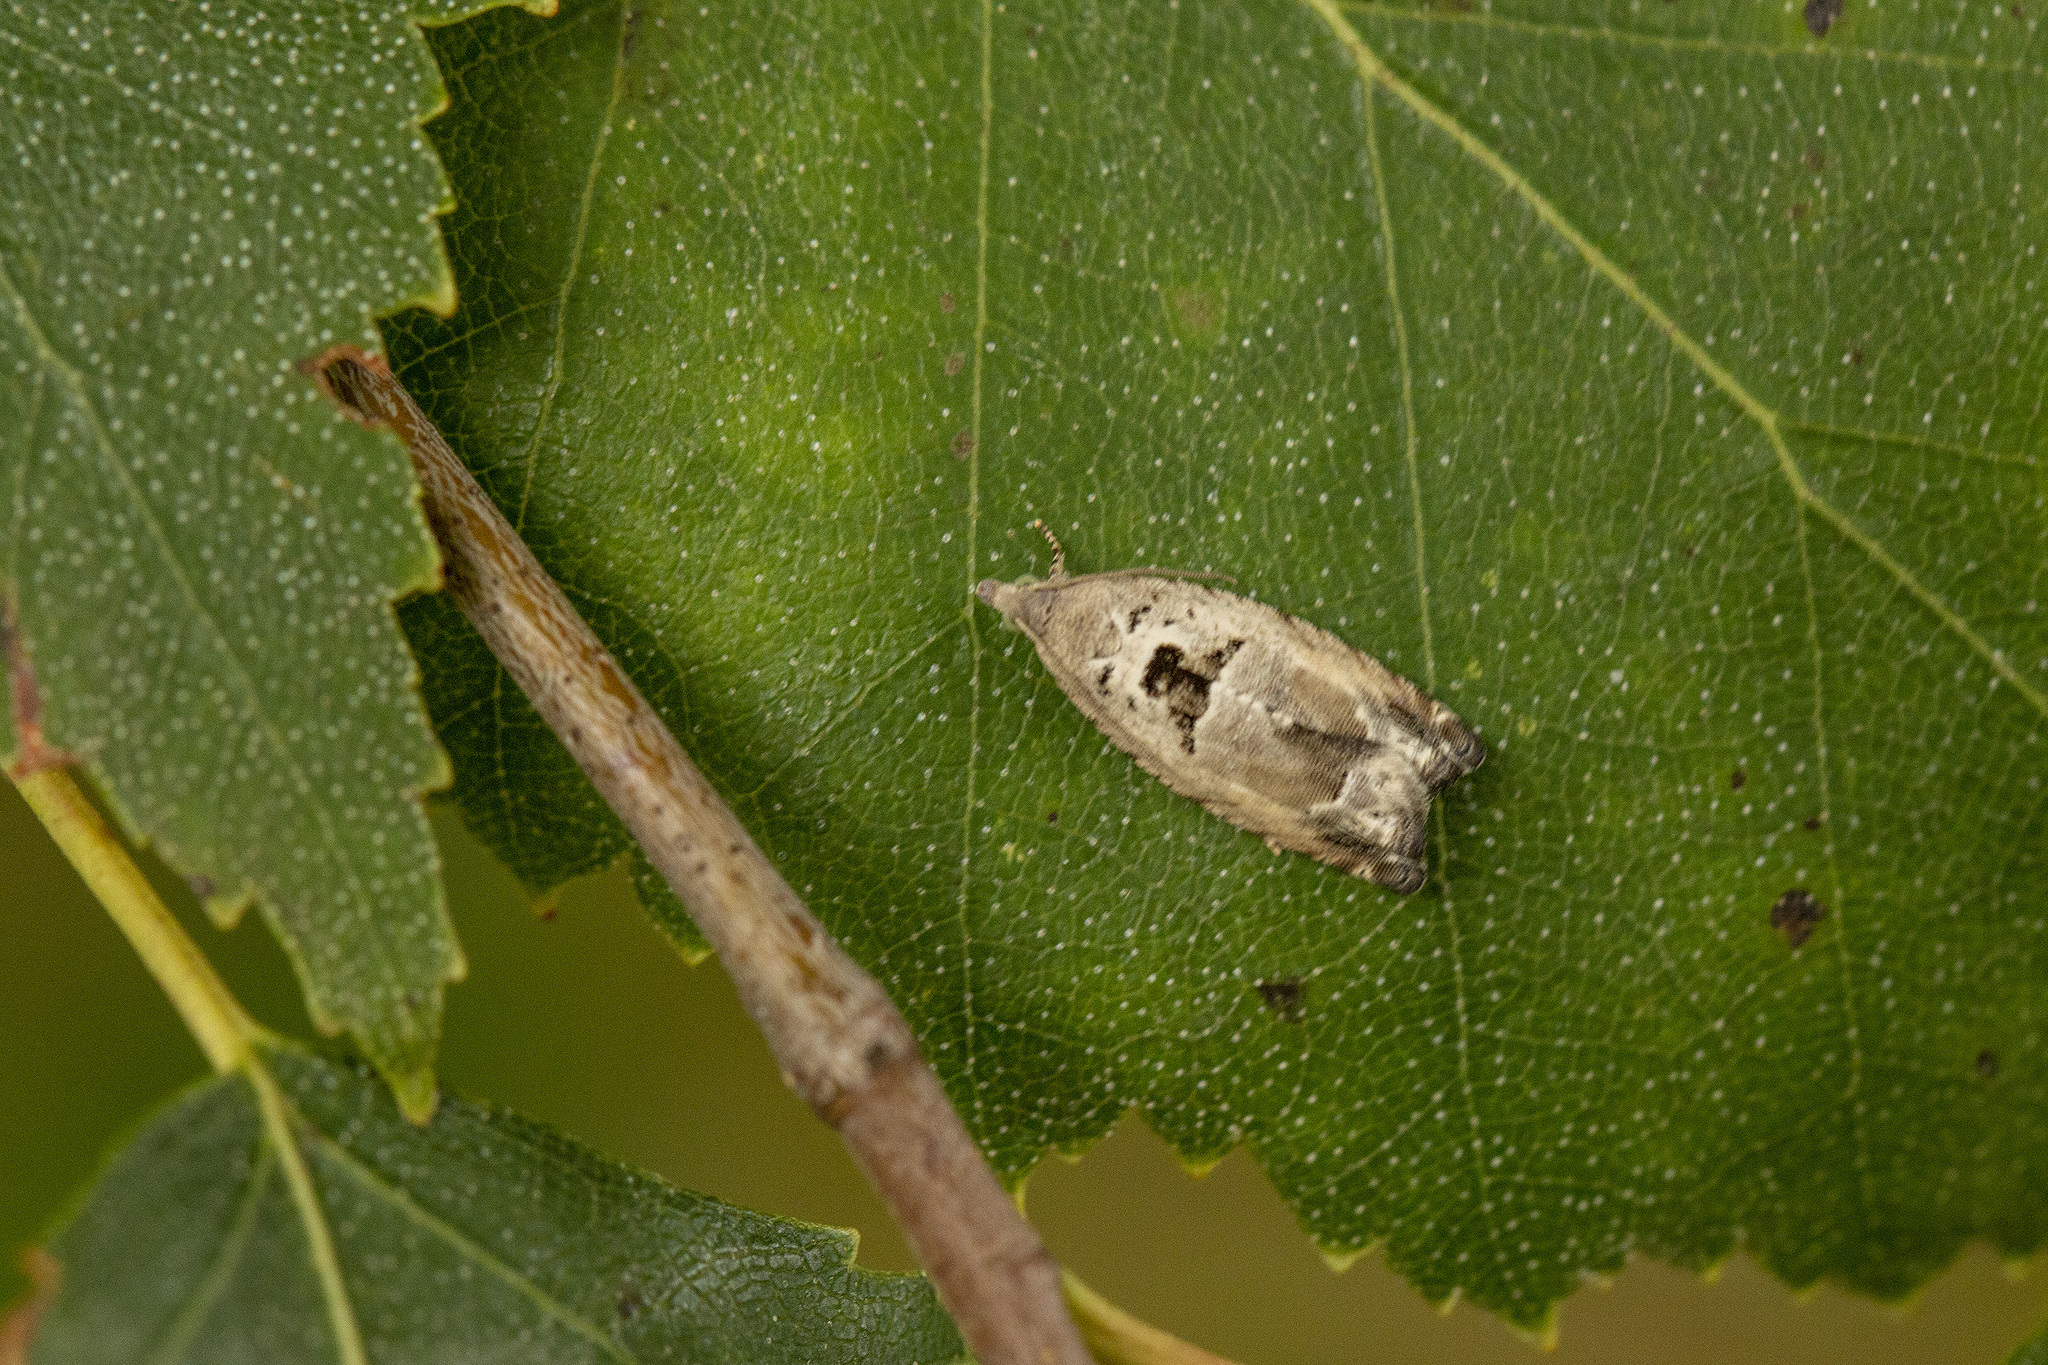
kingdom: Animalia
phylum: Arthropoda
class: Insecta
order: Lepidoptera
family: Tortricidae
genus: Epinotia
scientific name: Epinotia ramella
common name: Small birch bell
